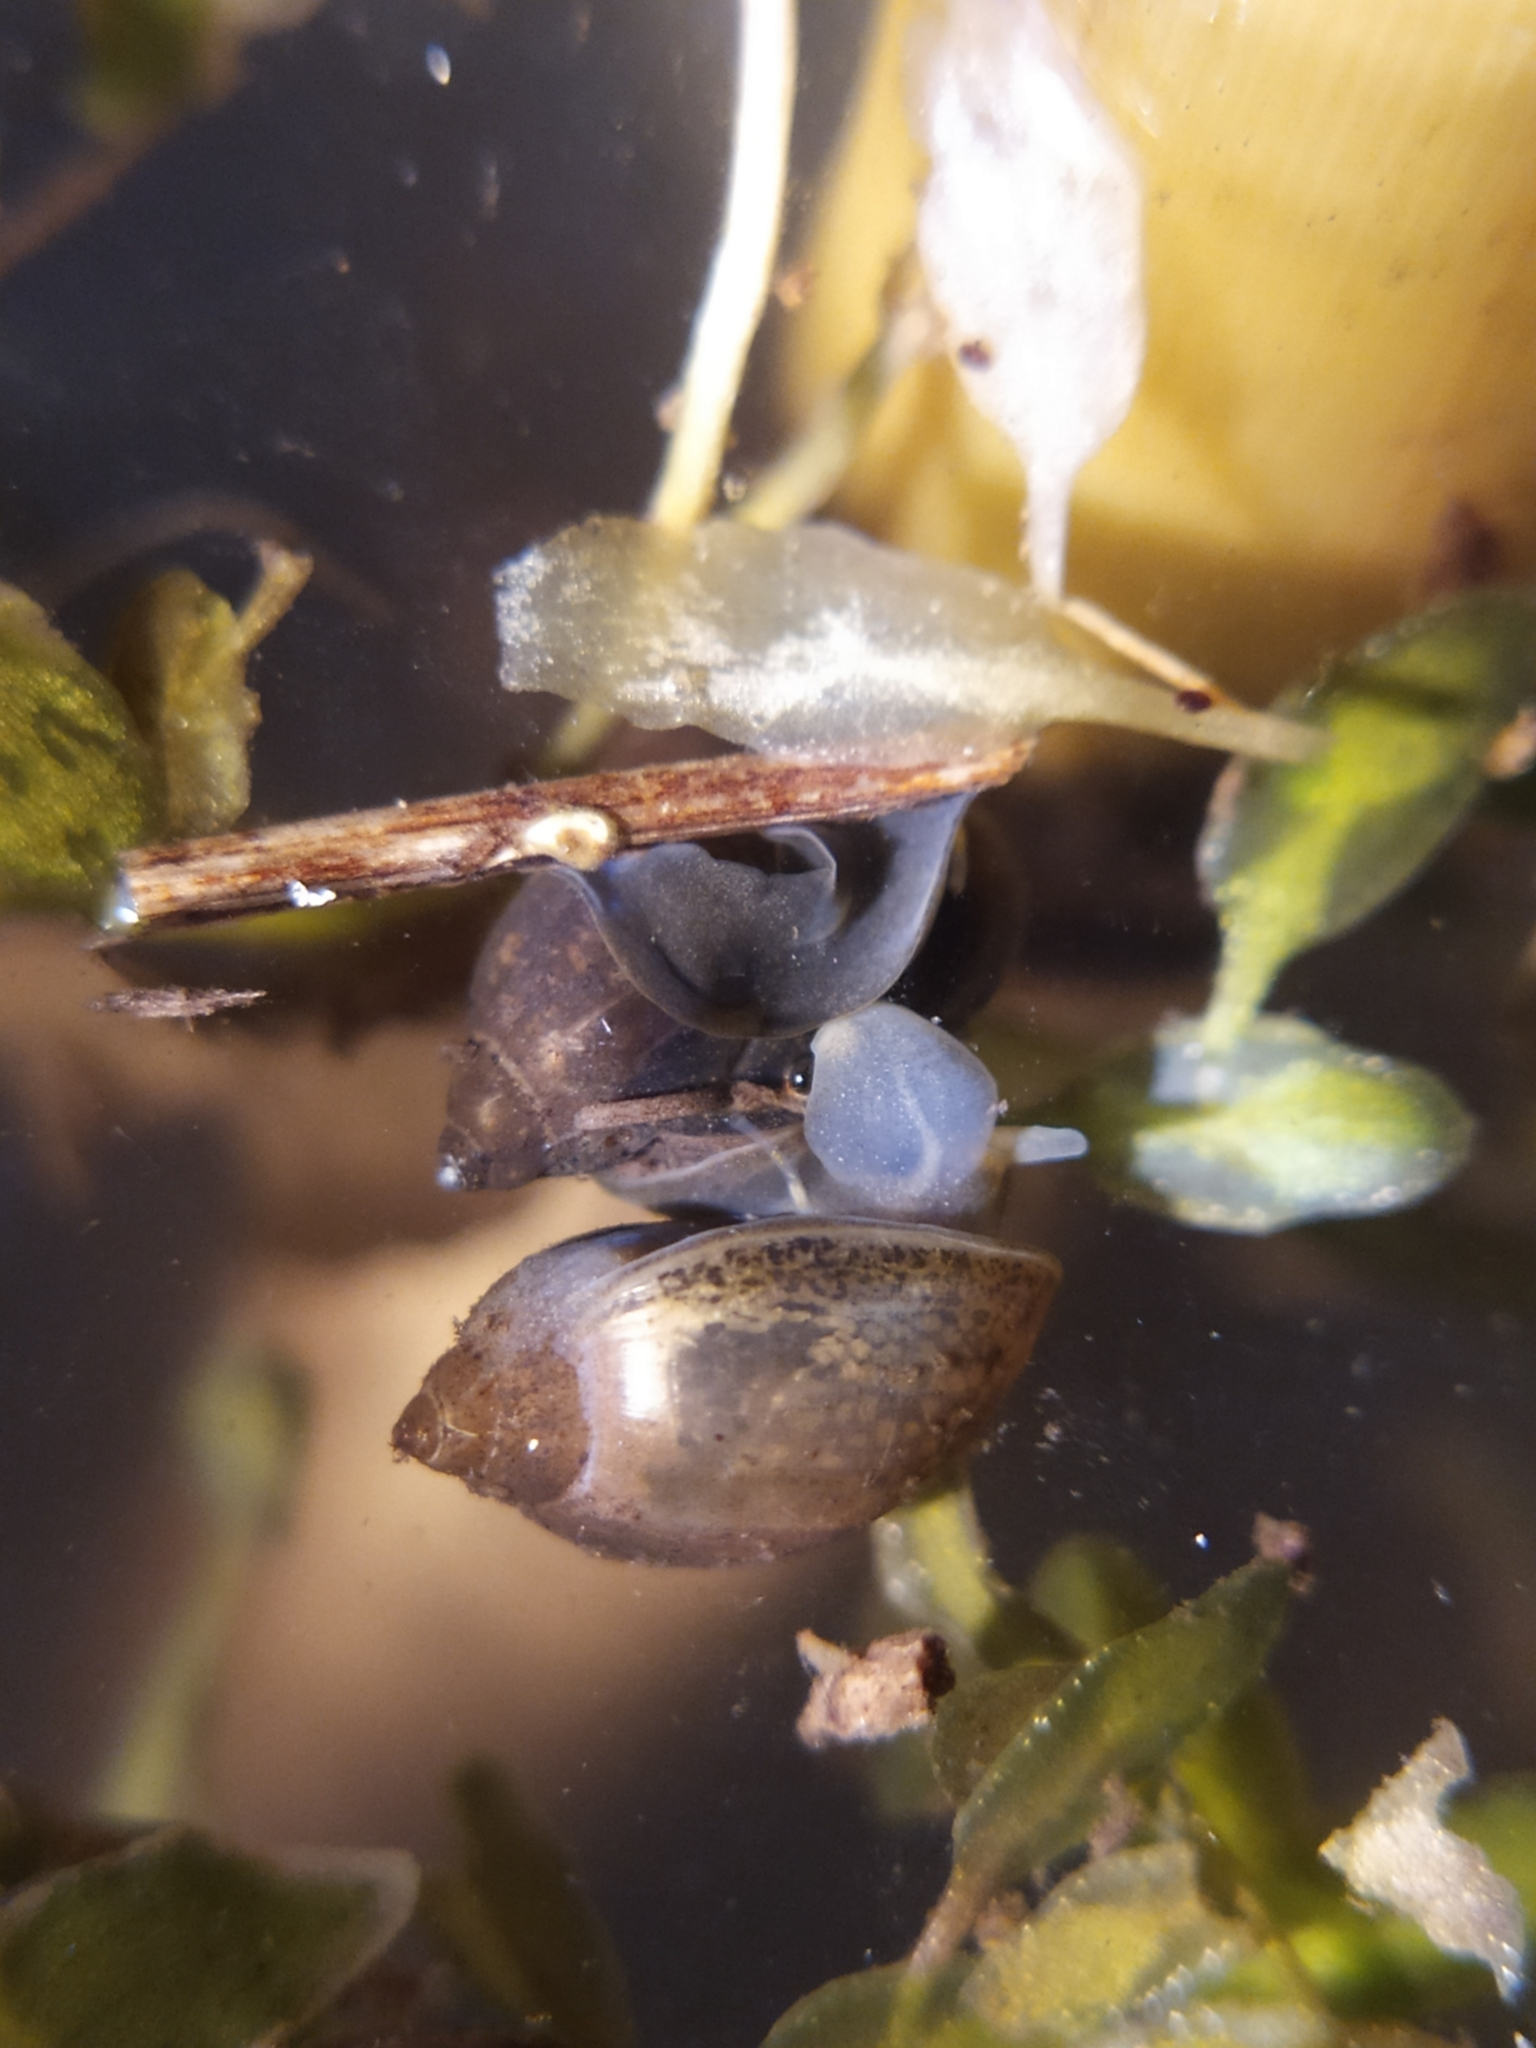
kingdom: Animalia
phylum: Mollusca
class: Gastropoda
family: Physidae
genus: Physella
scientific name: Physella acuta
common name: European physa
